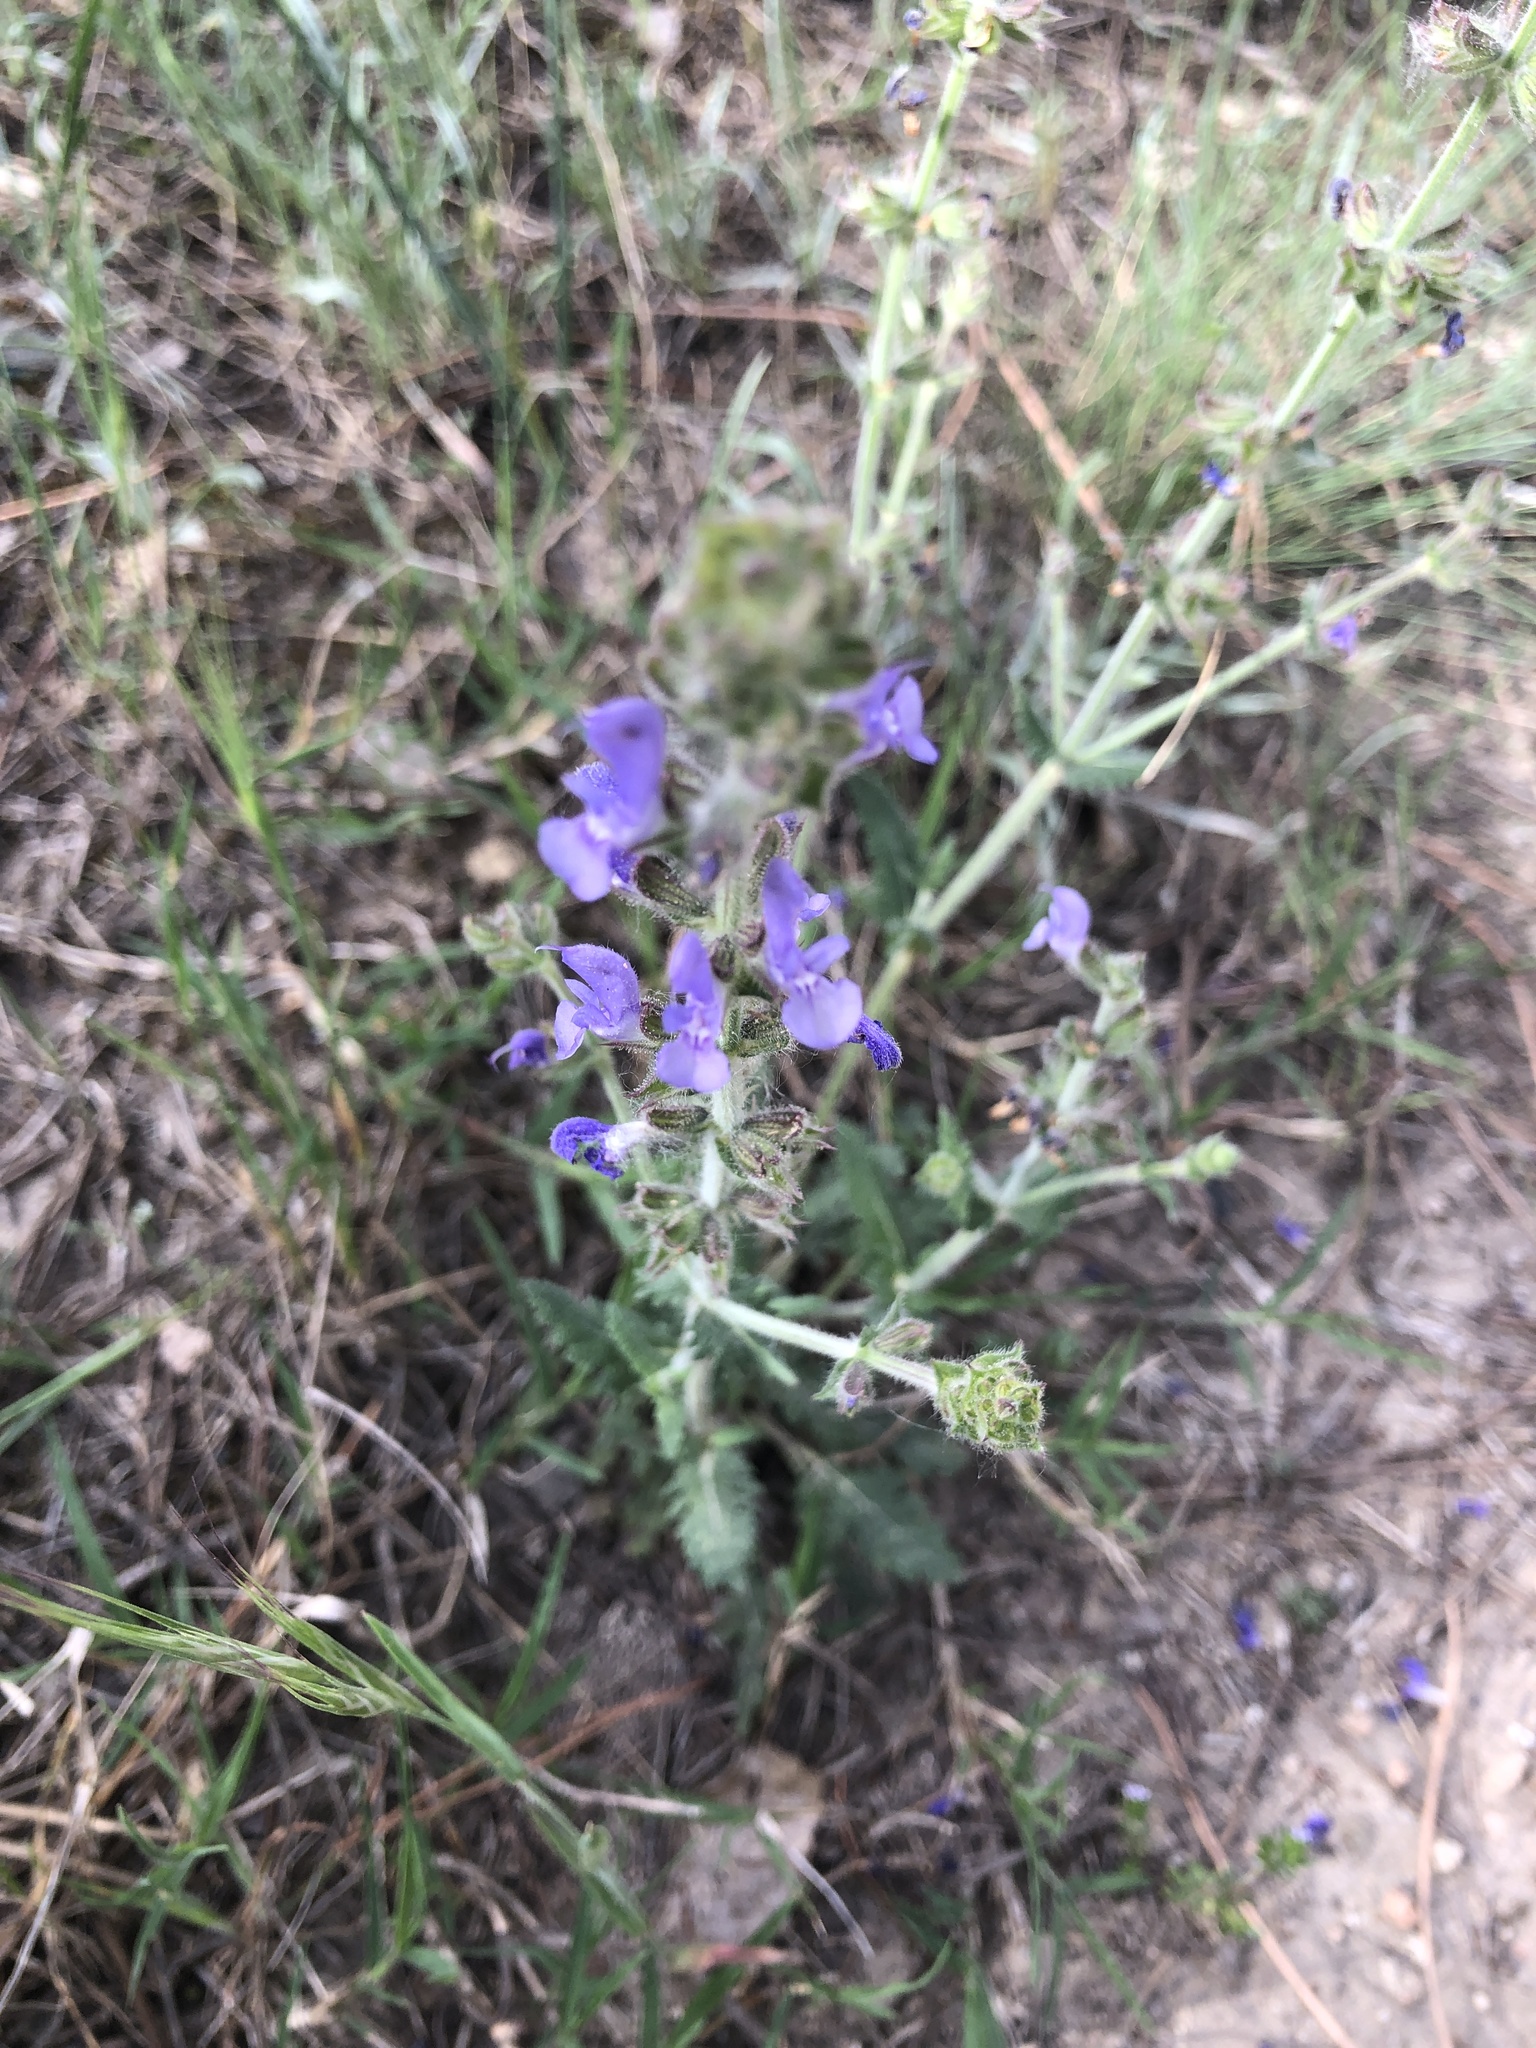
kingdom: Plantae
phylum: Tracheophyta
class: Magnoliopsida
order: Lamiales
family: Lamiaceae
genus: Salvia
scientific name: Salvia verbenaca
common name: Wild clary
